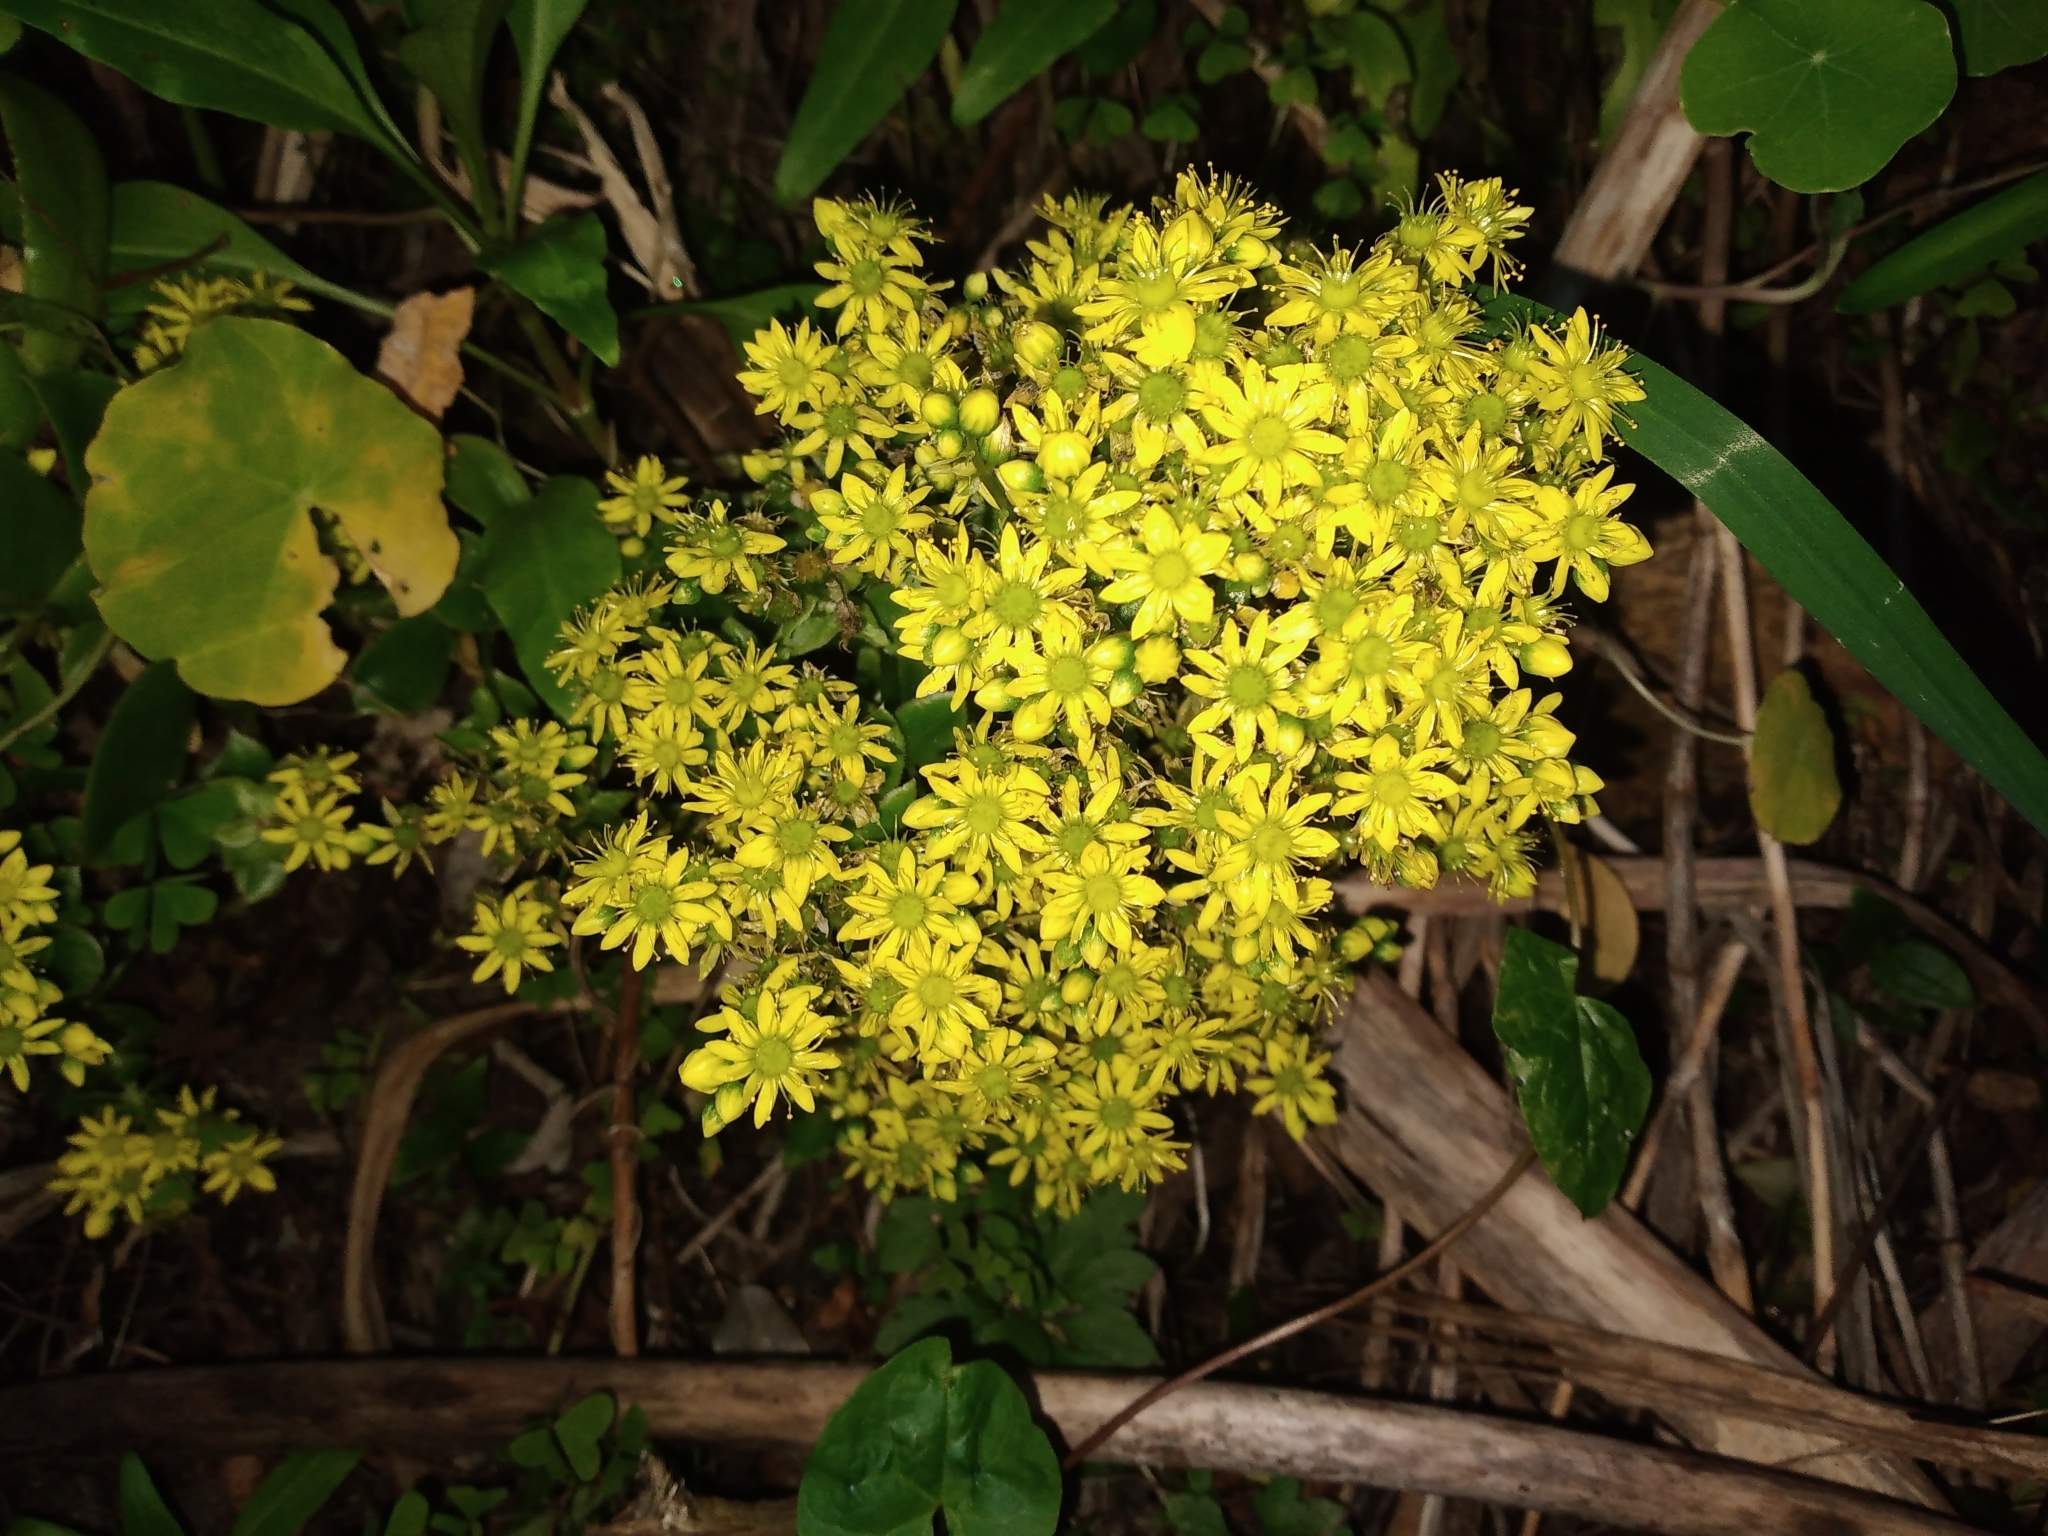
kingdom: Plantae
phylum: Tracheophyta
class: Magnoliopsida
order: Saxifragales
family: Crassulaceae
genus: Aeonium
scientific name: Aeonium arboreum
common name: Tree aeonium
